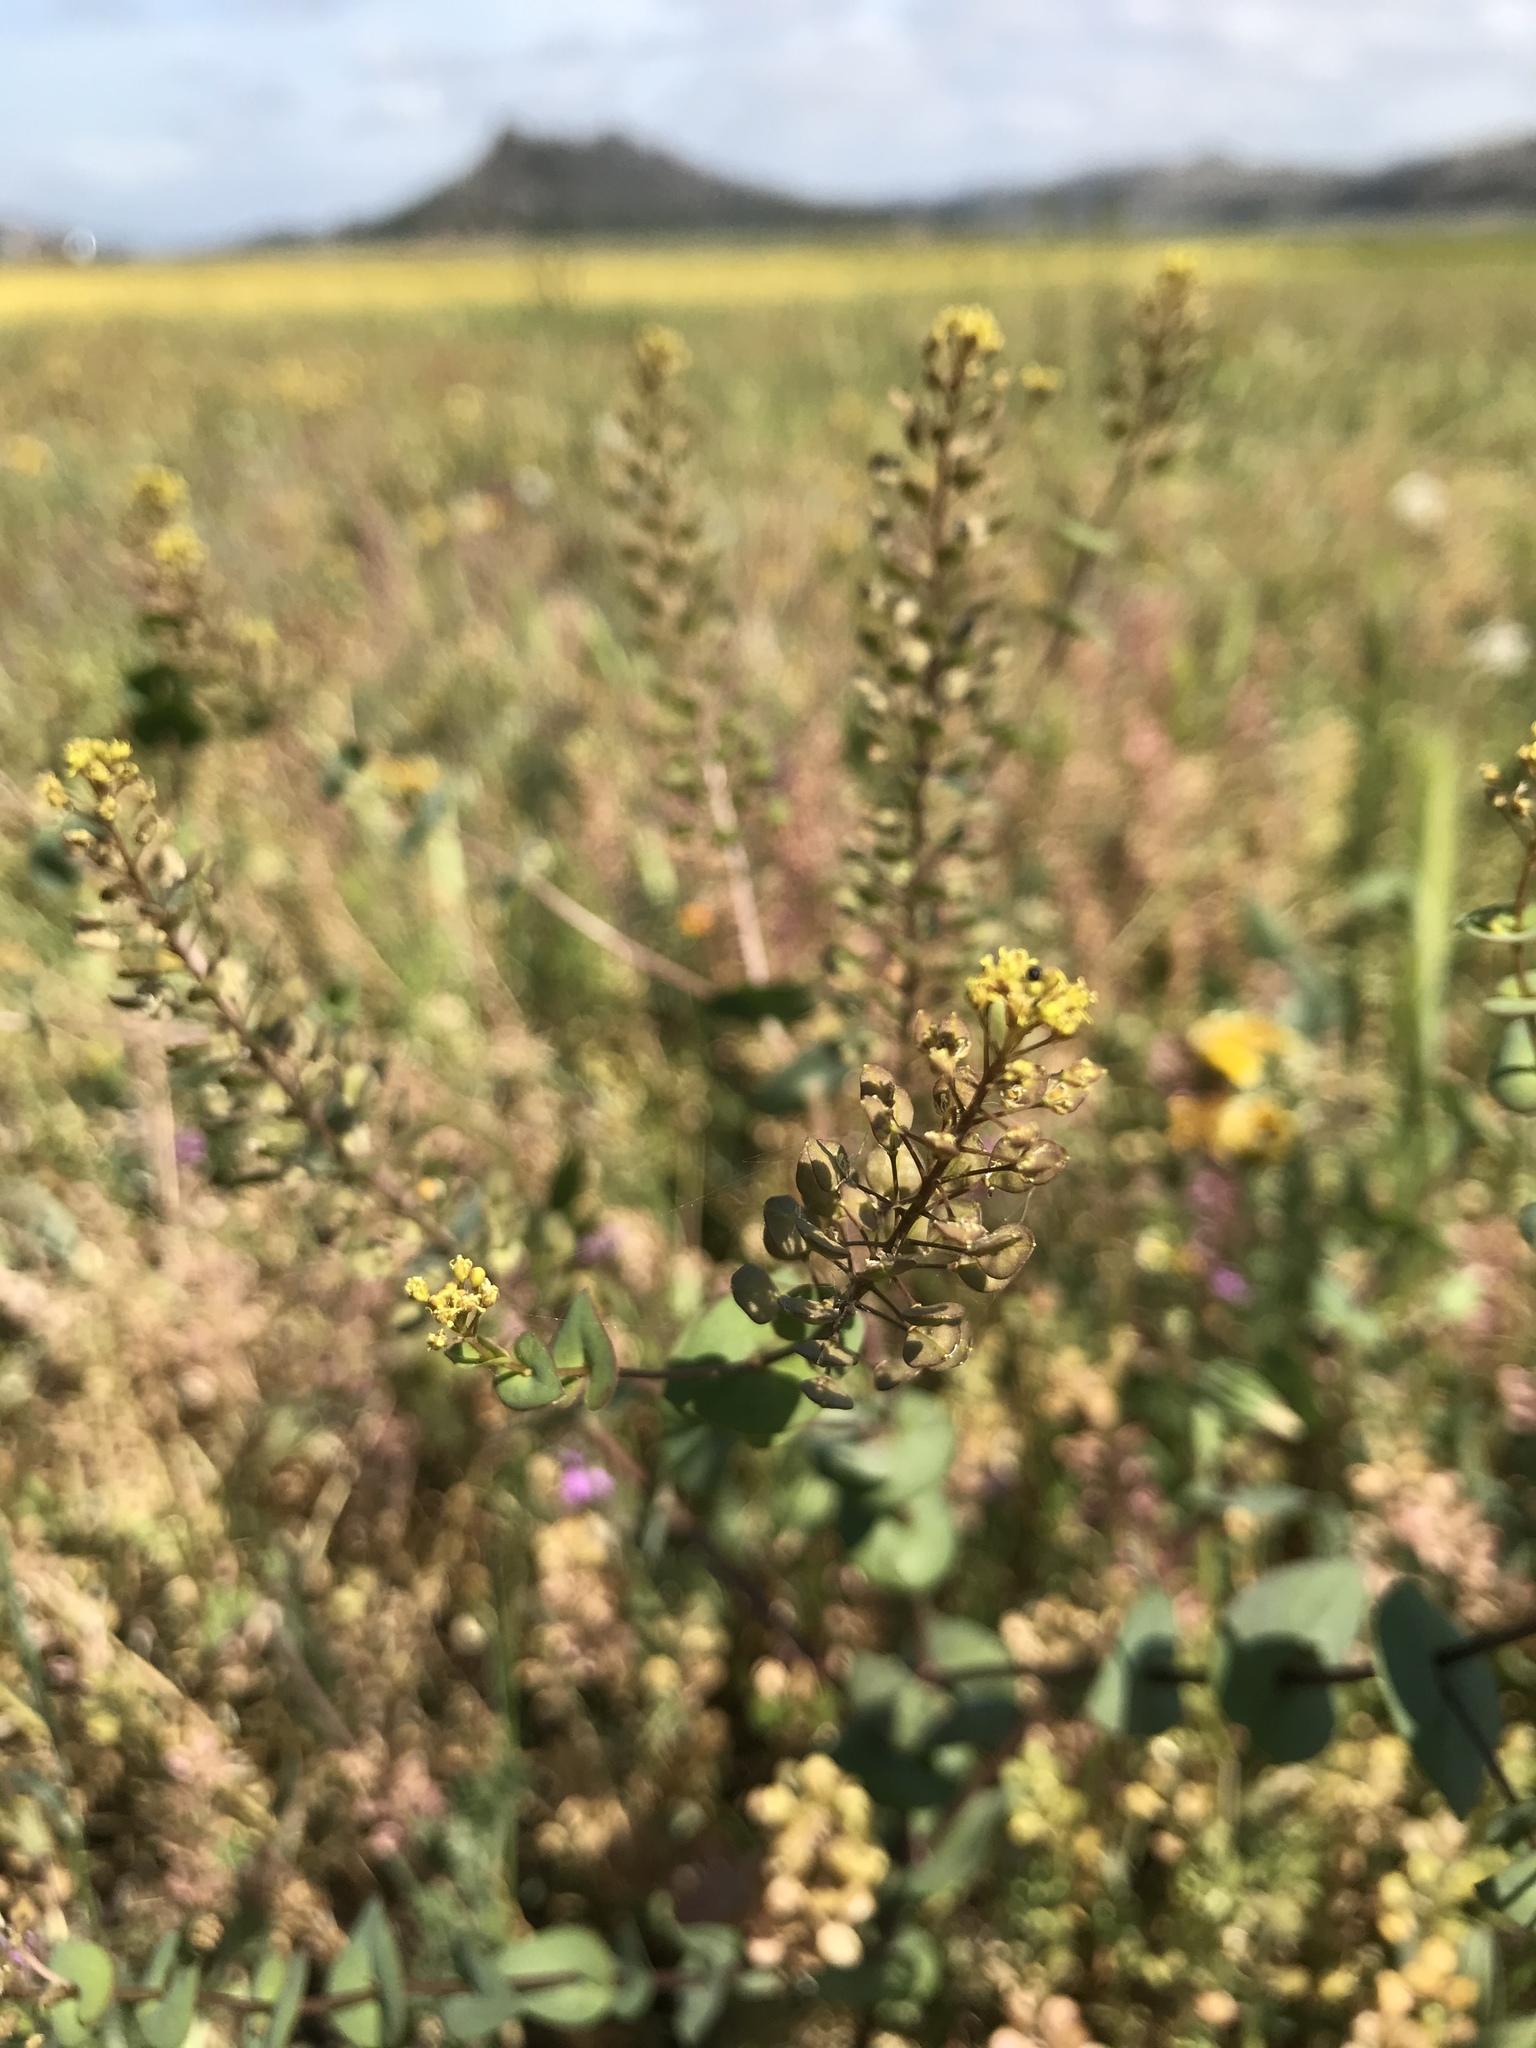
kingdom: Plantae
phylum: Tracheophyta
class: Magnoliopsida
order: Brassicales
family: Brassicaceae
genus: Lepidium
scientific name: Lepidium perfoliatum
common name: Perfoliate pepperwort
